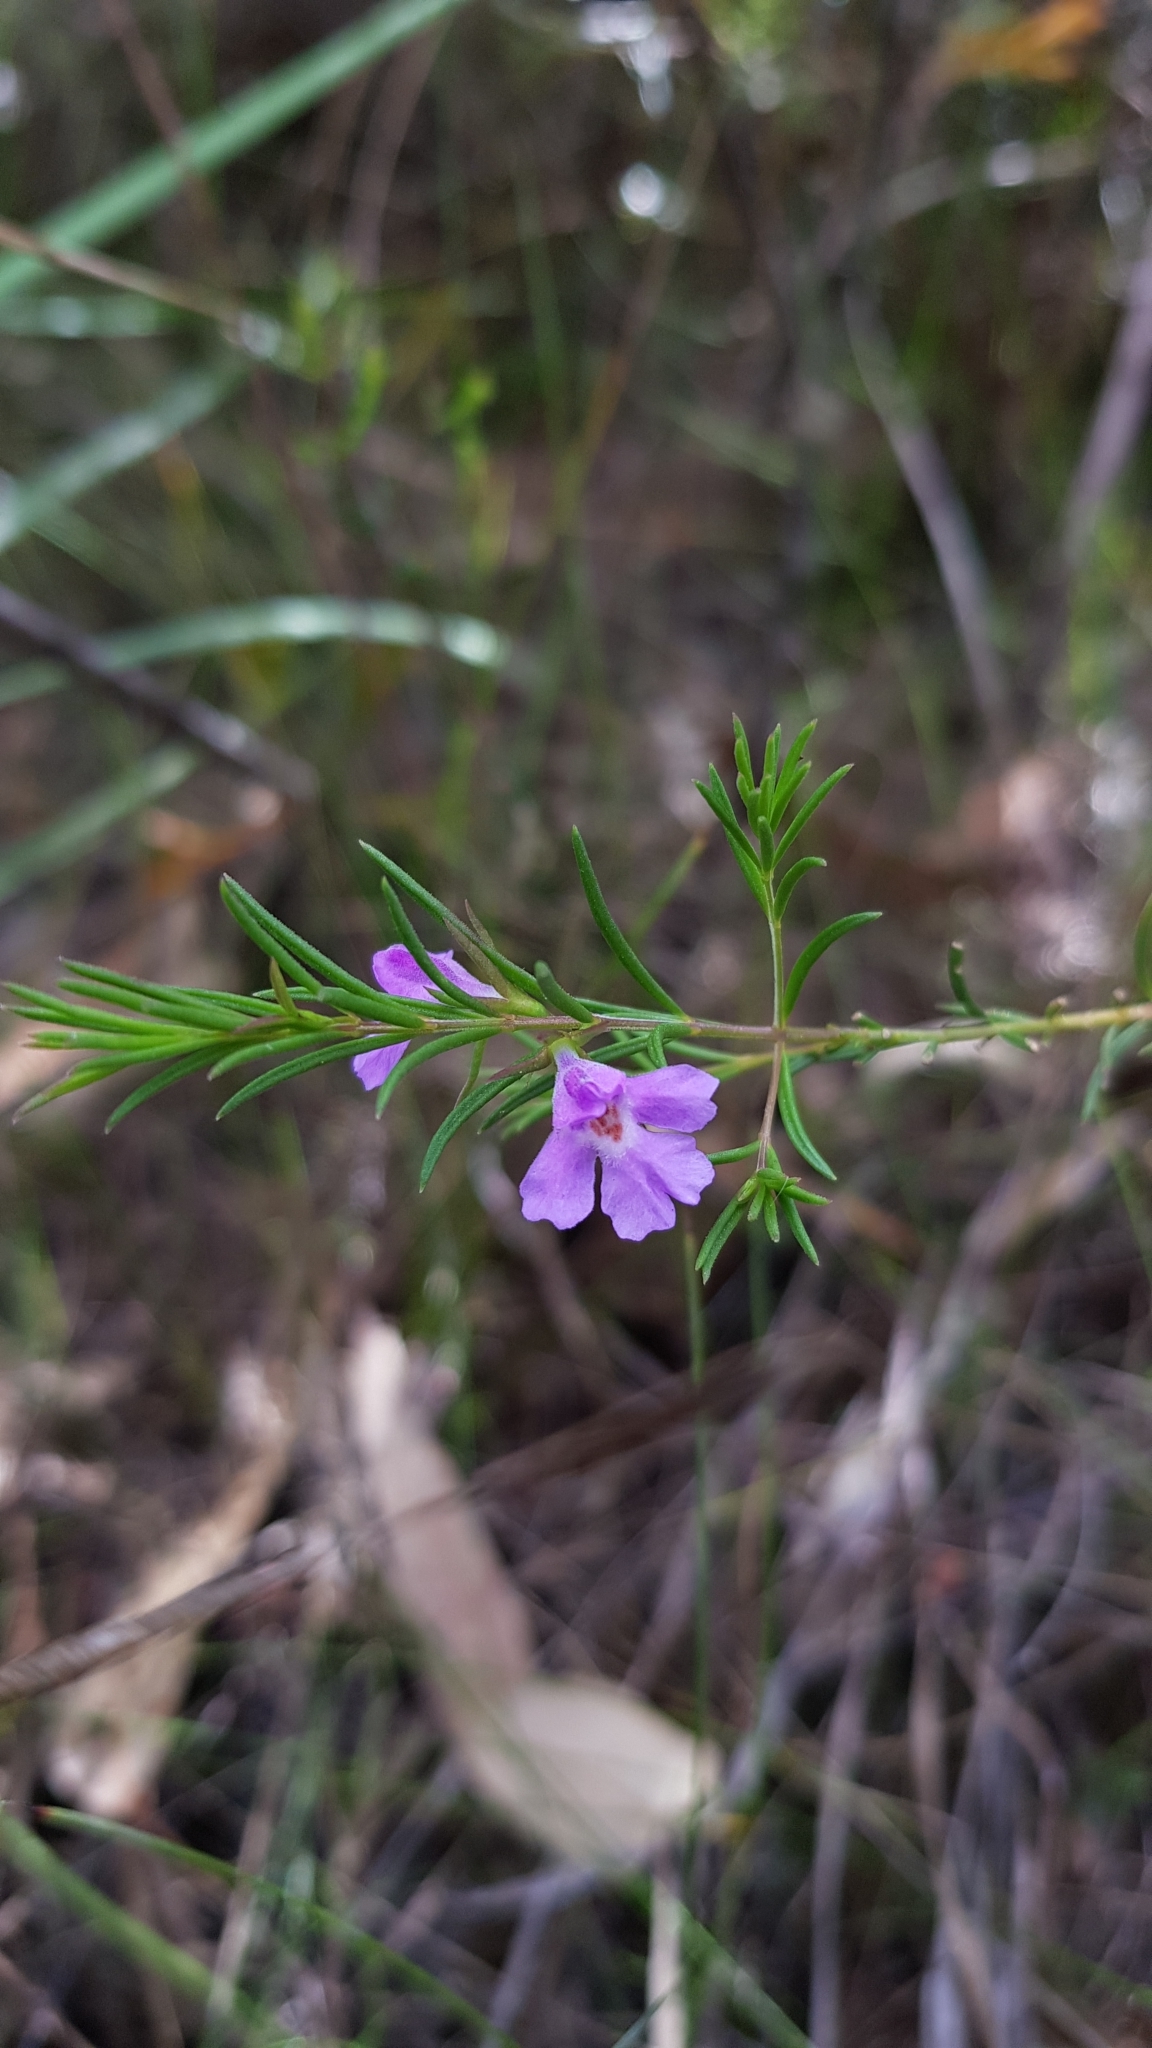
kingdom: Plantae
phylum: Tracheophyta
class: Magnoliopsida
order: Lamiales
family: Lamiaceae
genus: Hemigenia
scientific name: Hemigenia purpurea
